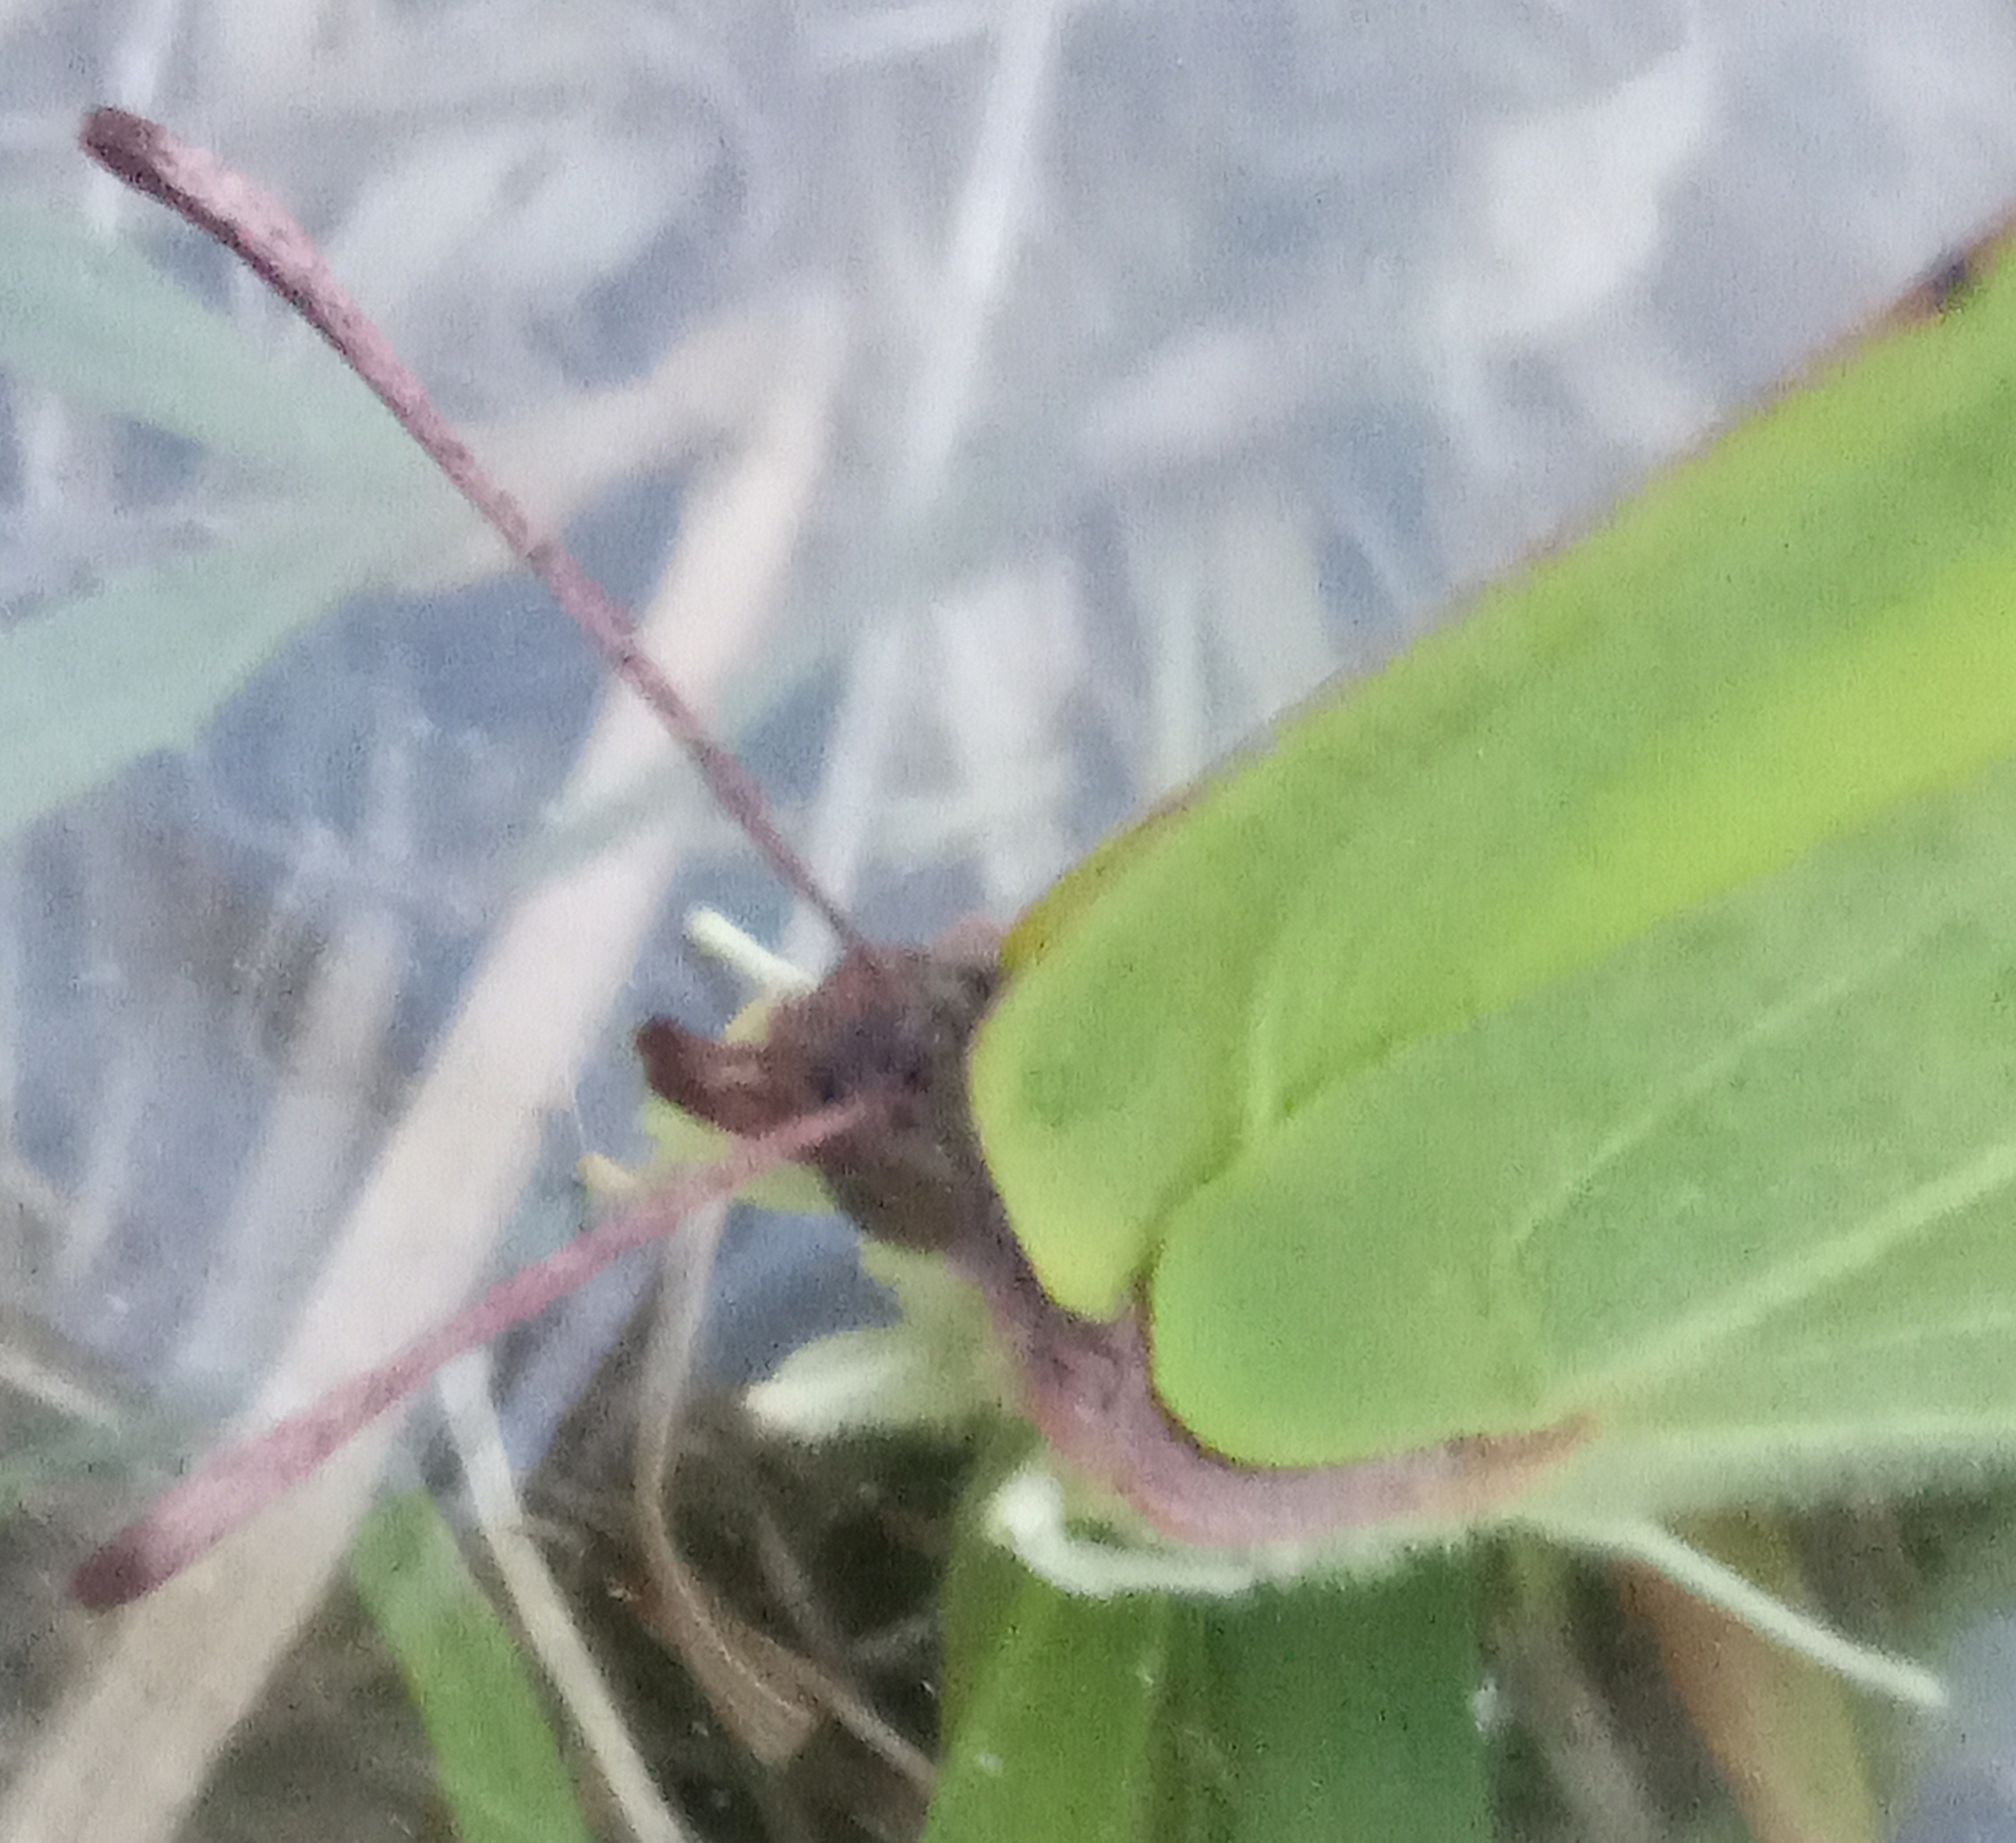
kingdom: Animalia
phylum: Arthropoda
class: Insecta
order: Lepidoptera
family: Pieridae
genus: Gonepteryx
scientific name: Gonepteryx rhamni
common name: Brimstone
